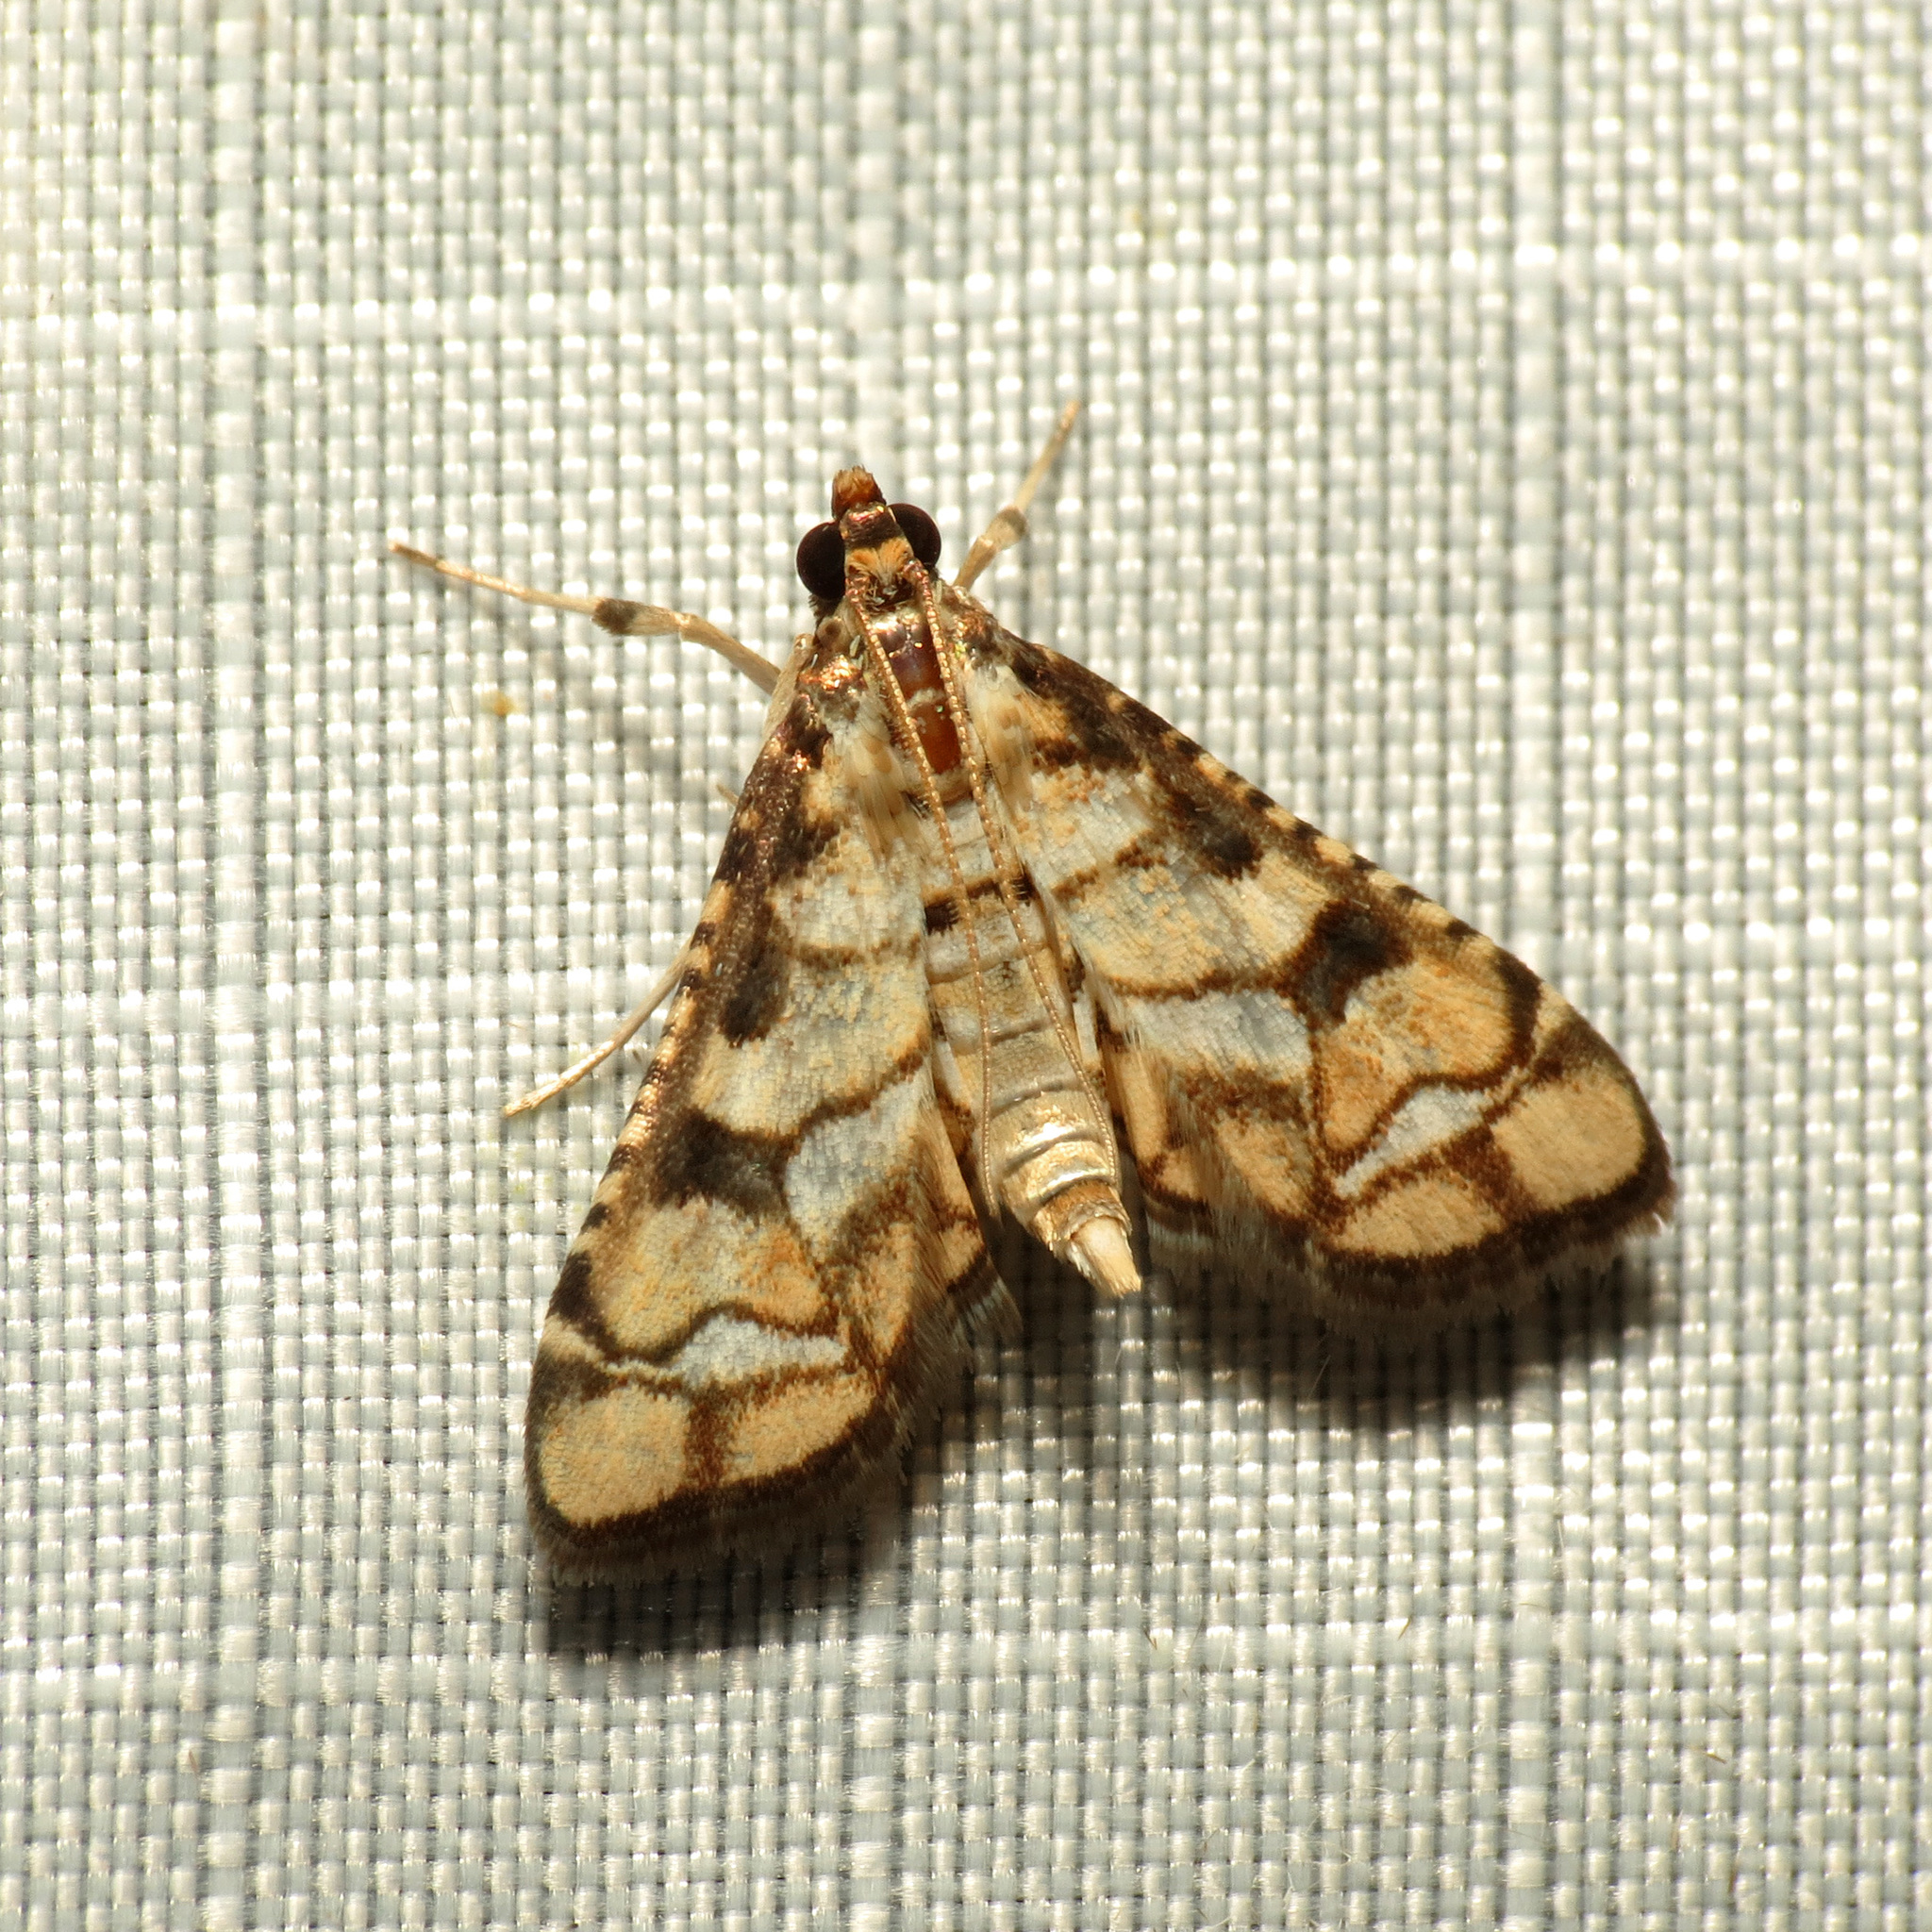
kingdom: Animalia
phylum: Arthropoda
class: Insecta
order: Lepidoptera
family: Crambidae
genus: Hileithia
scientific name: Hileithia magualis
